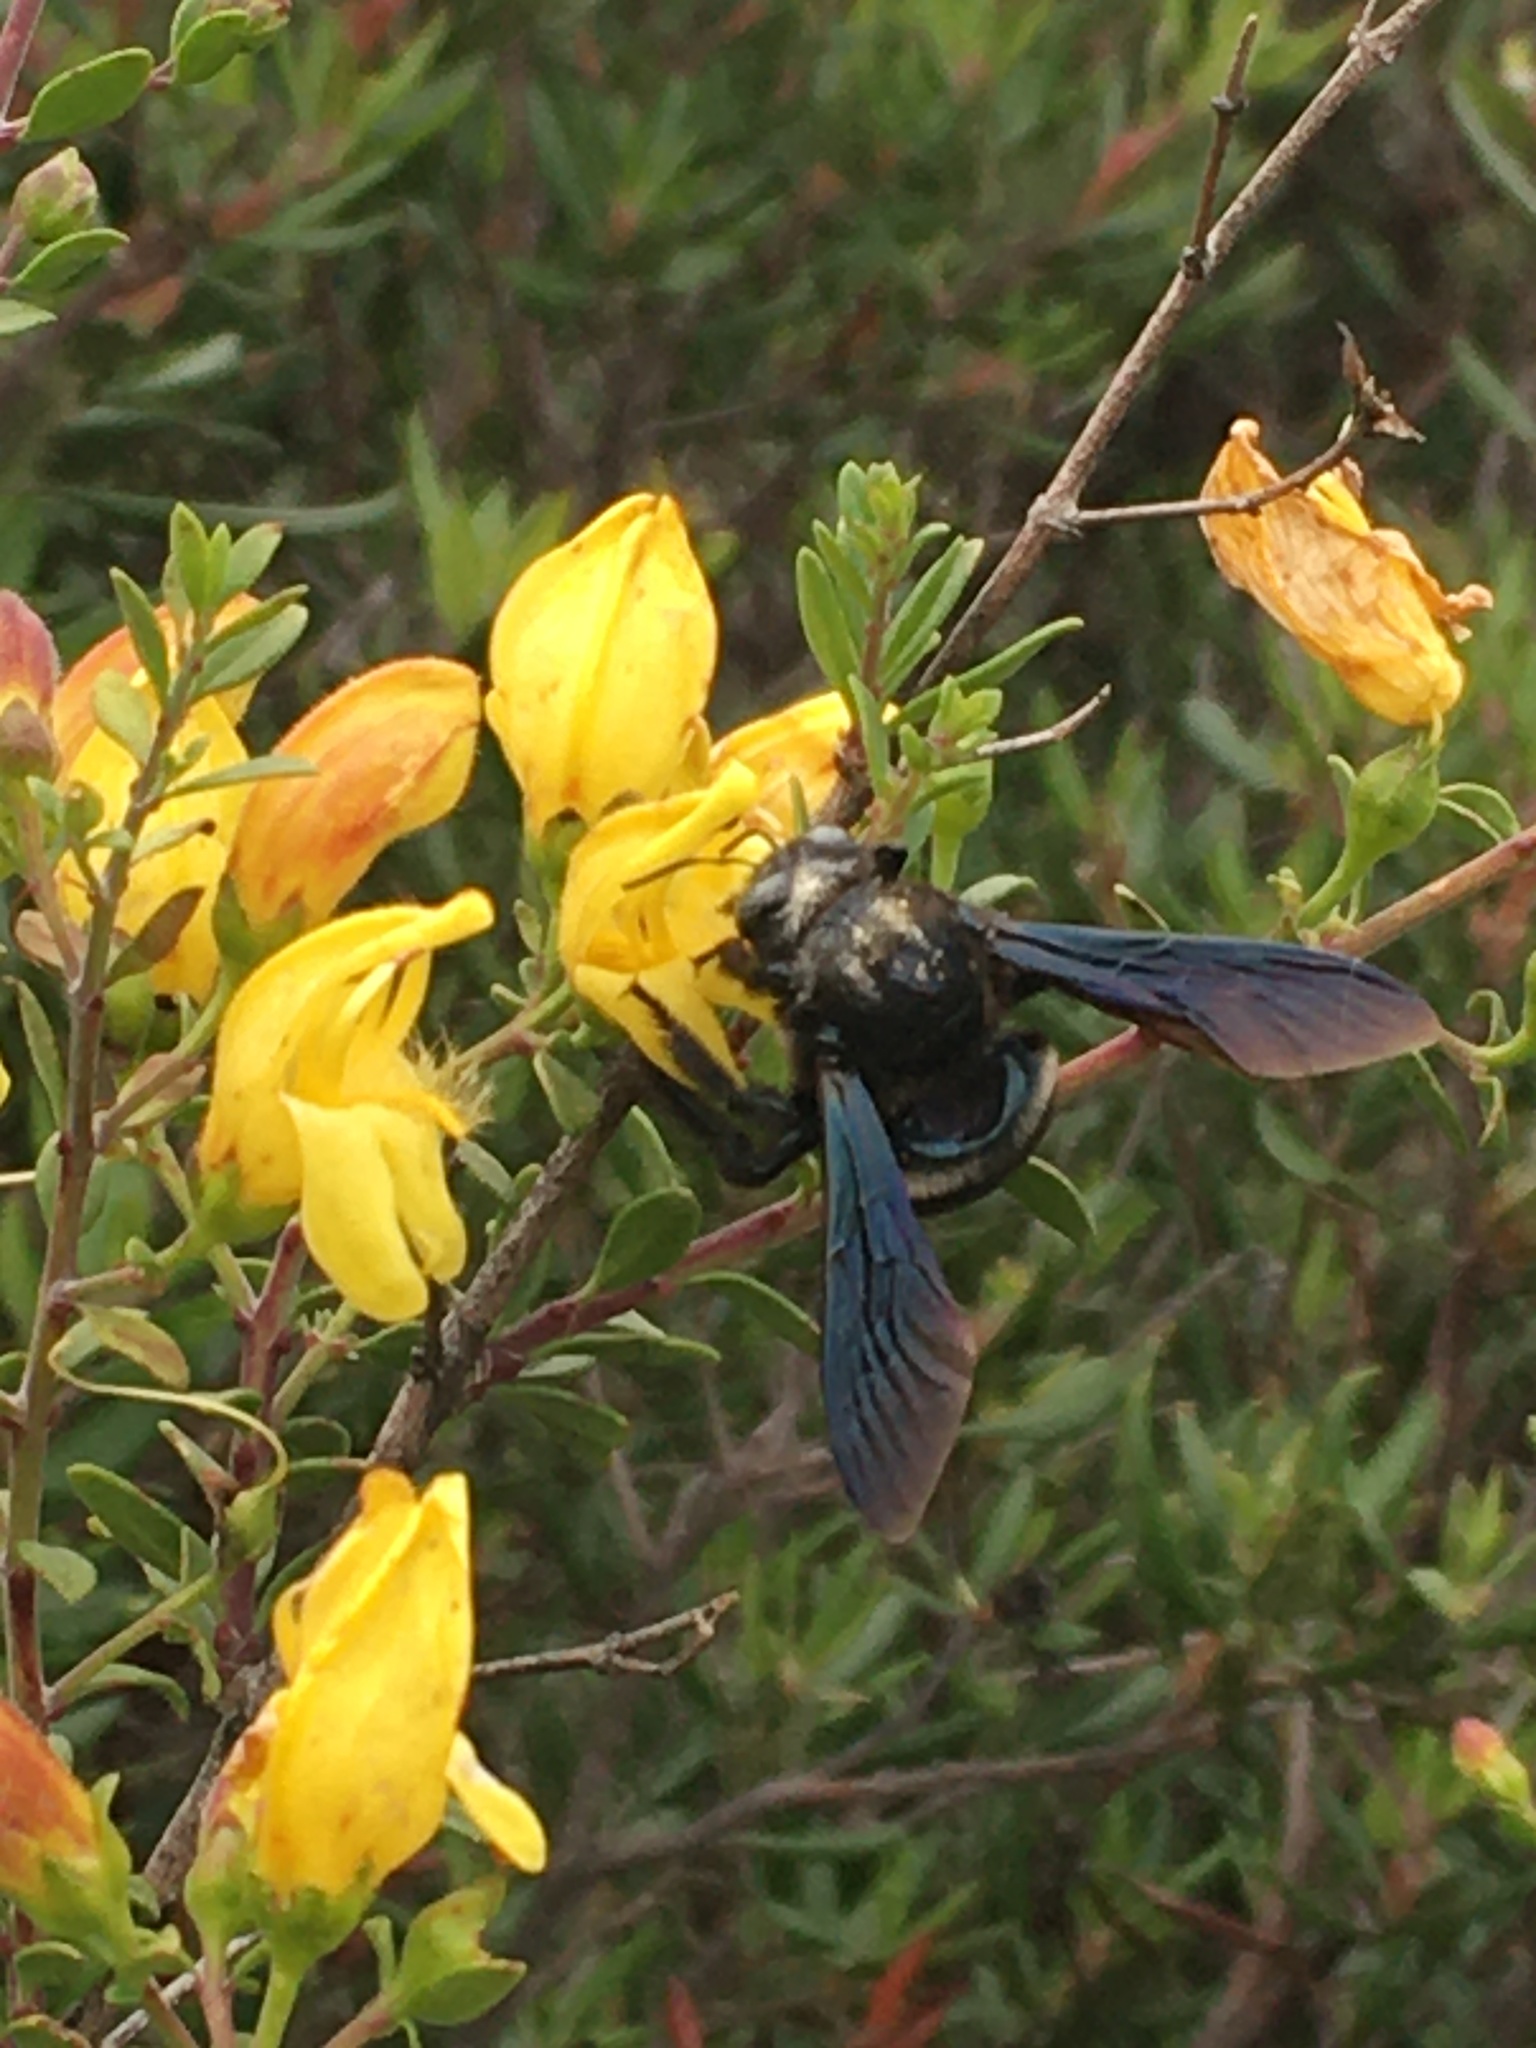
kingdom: Animalia
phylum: Arthropoda
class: Insecta
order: Hymenoptera
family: Apidae
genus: Xylocopa
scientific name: Xylocopa californica
